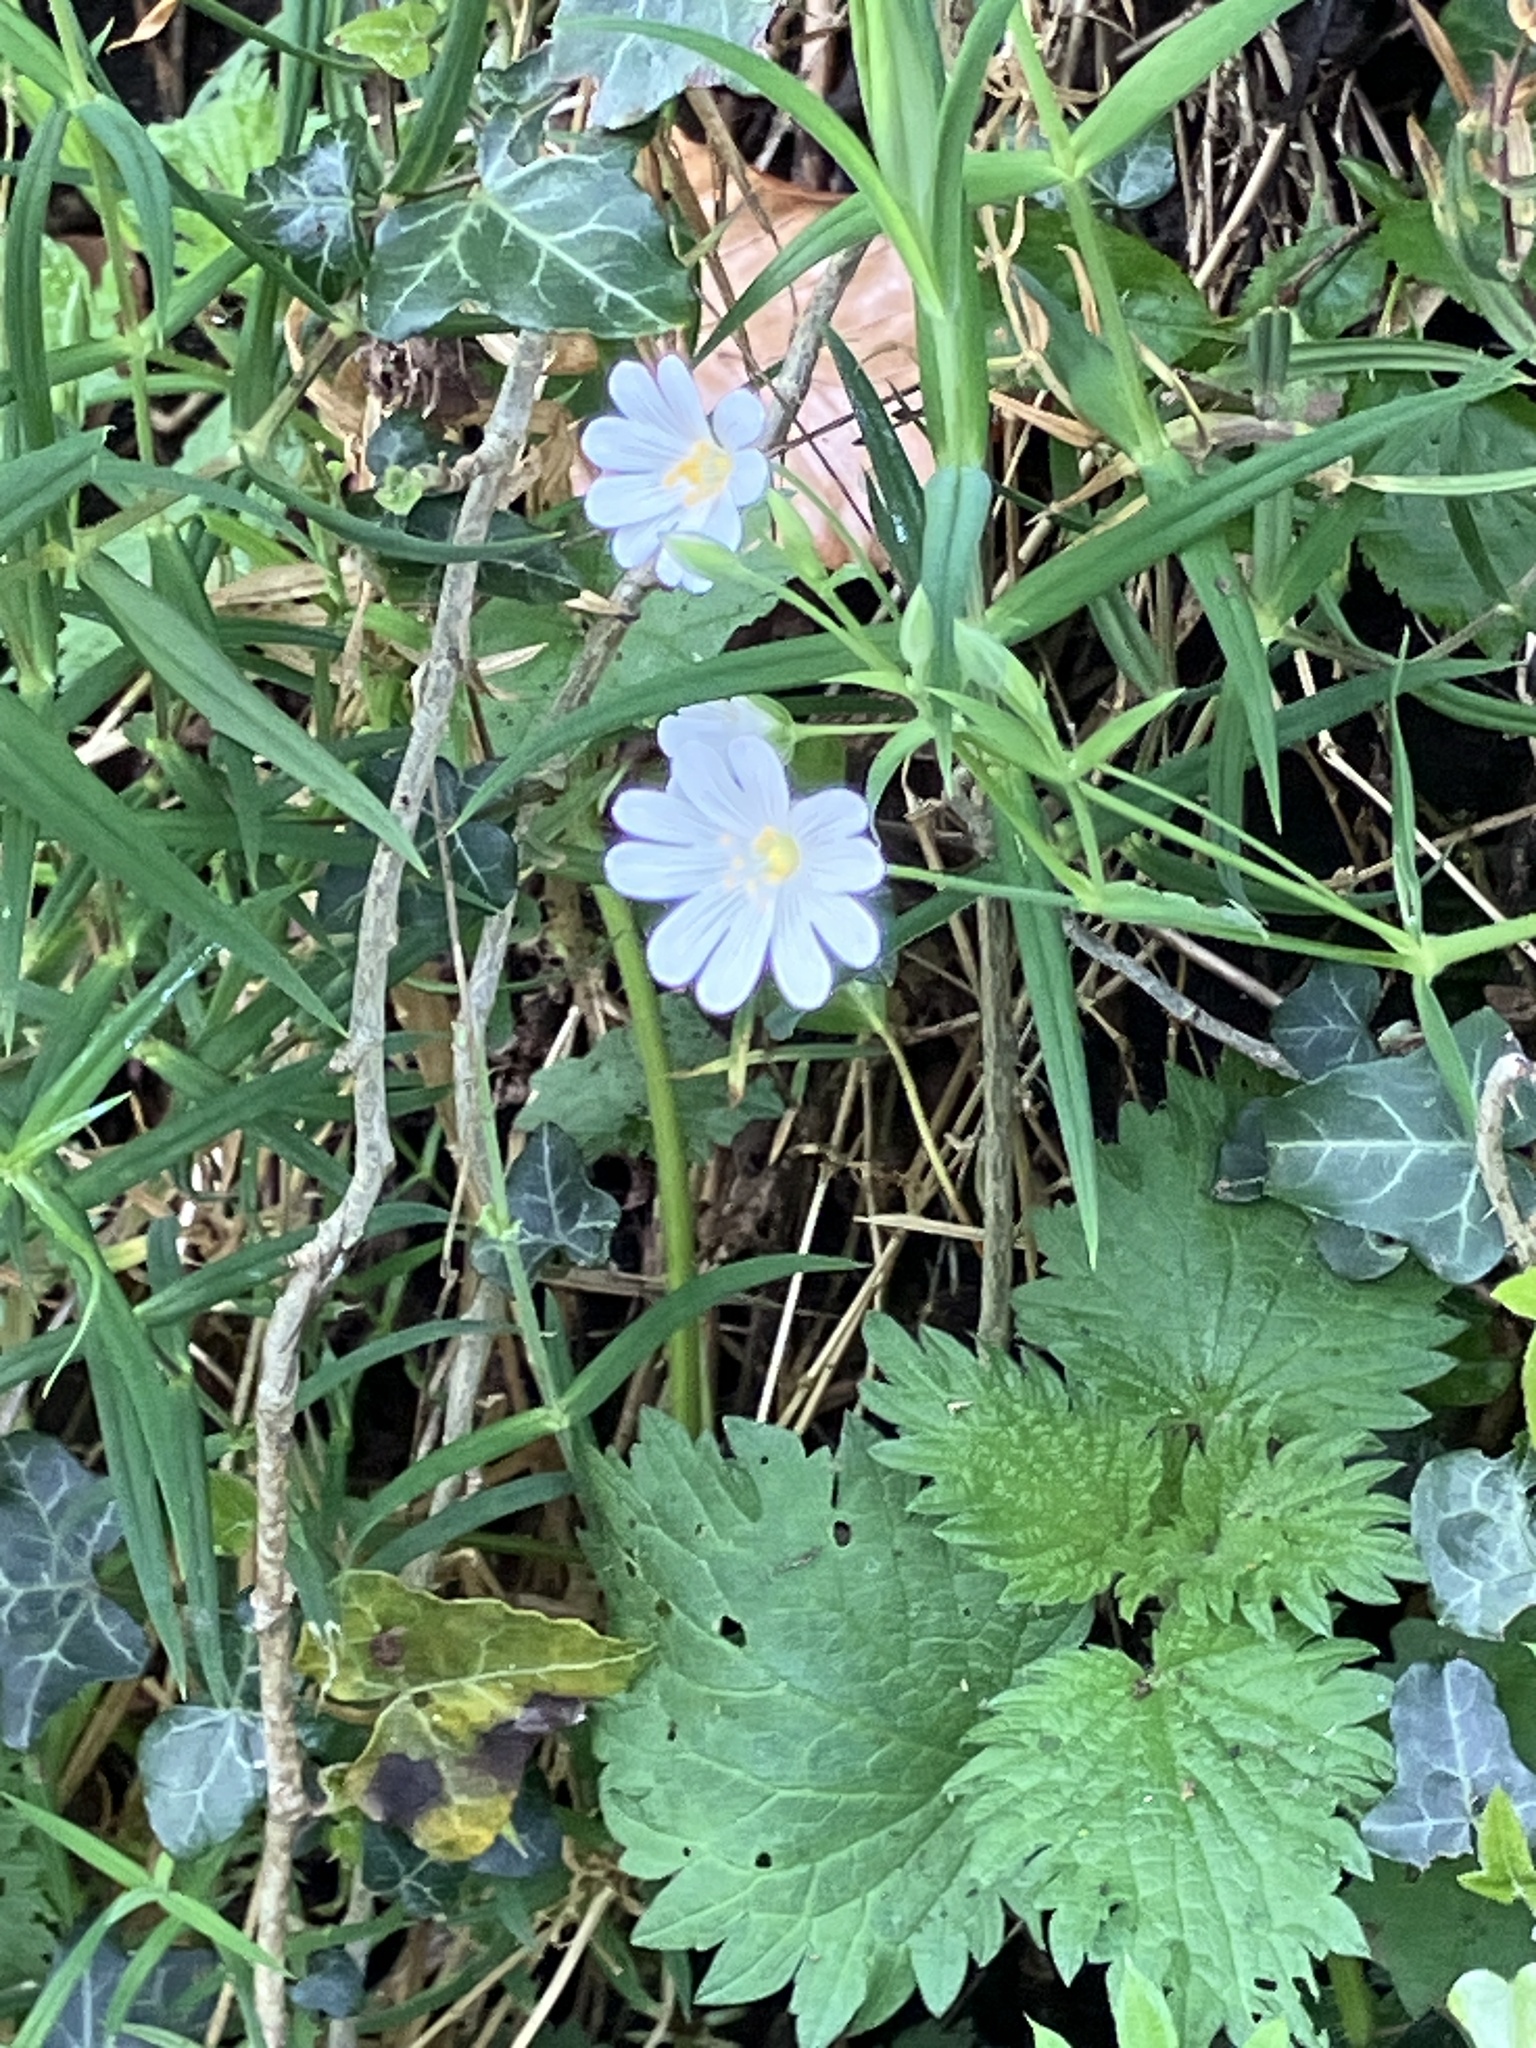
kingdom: Plantae
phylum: Tracheophyta
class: Magnoliopsida
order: Caryophyllales
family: Caryophyllaceae
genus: Rabelera
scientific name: Rabelera holostea
